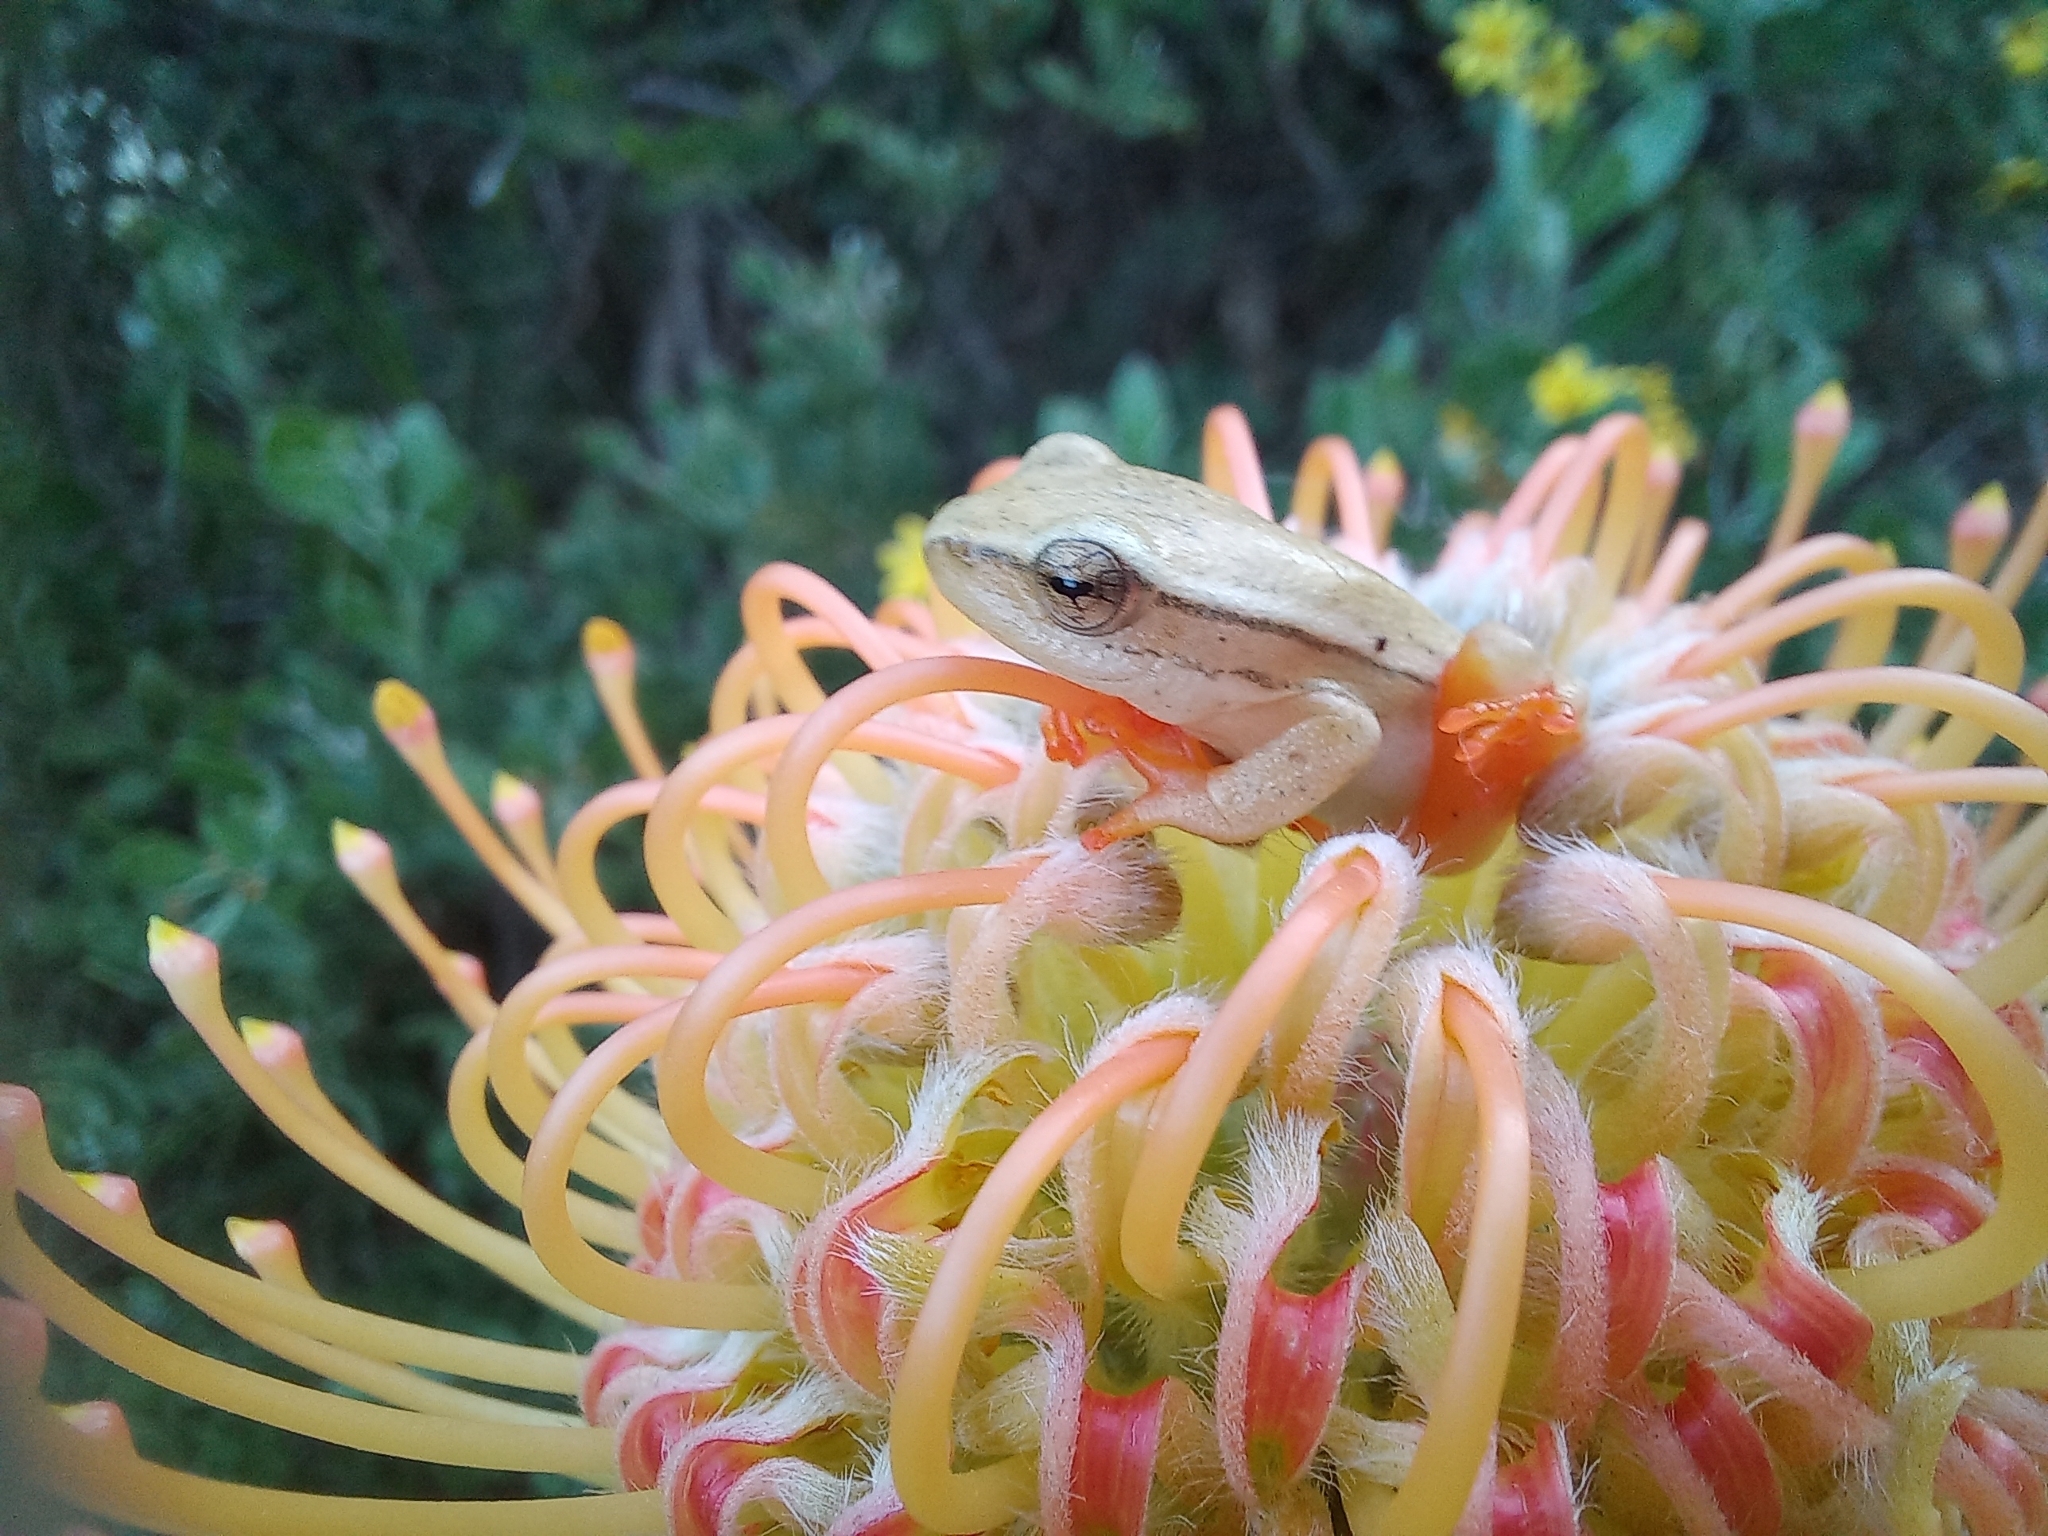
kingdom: Animalia
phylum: Chordata
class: Amphibia
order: Anura
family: Hyperoliidae
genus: Hyperolius
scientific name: Hyperolius horstockii
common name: Arum lily frog
